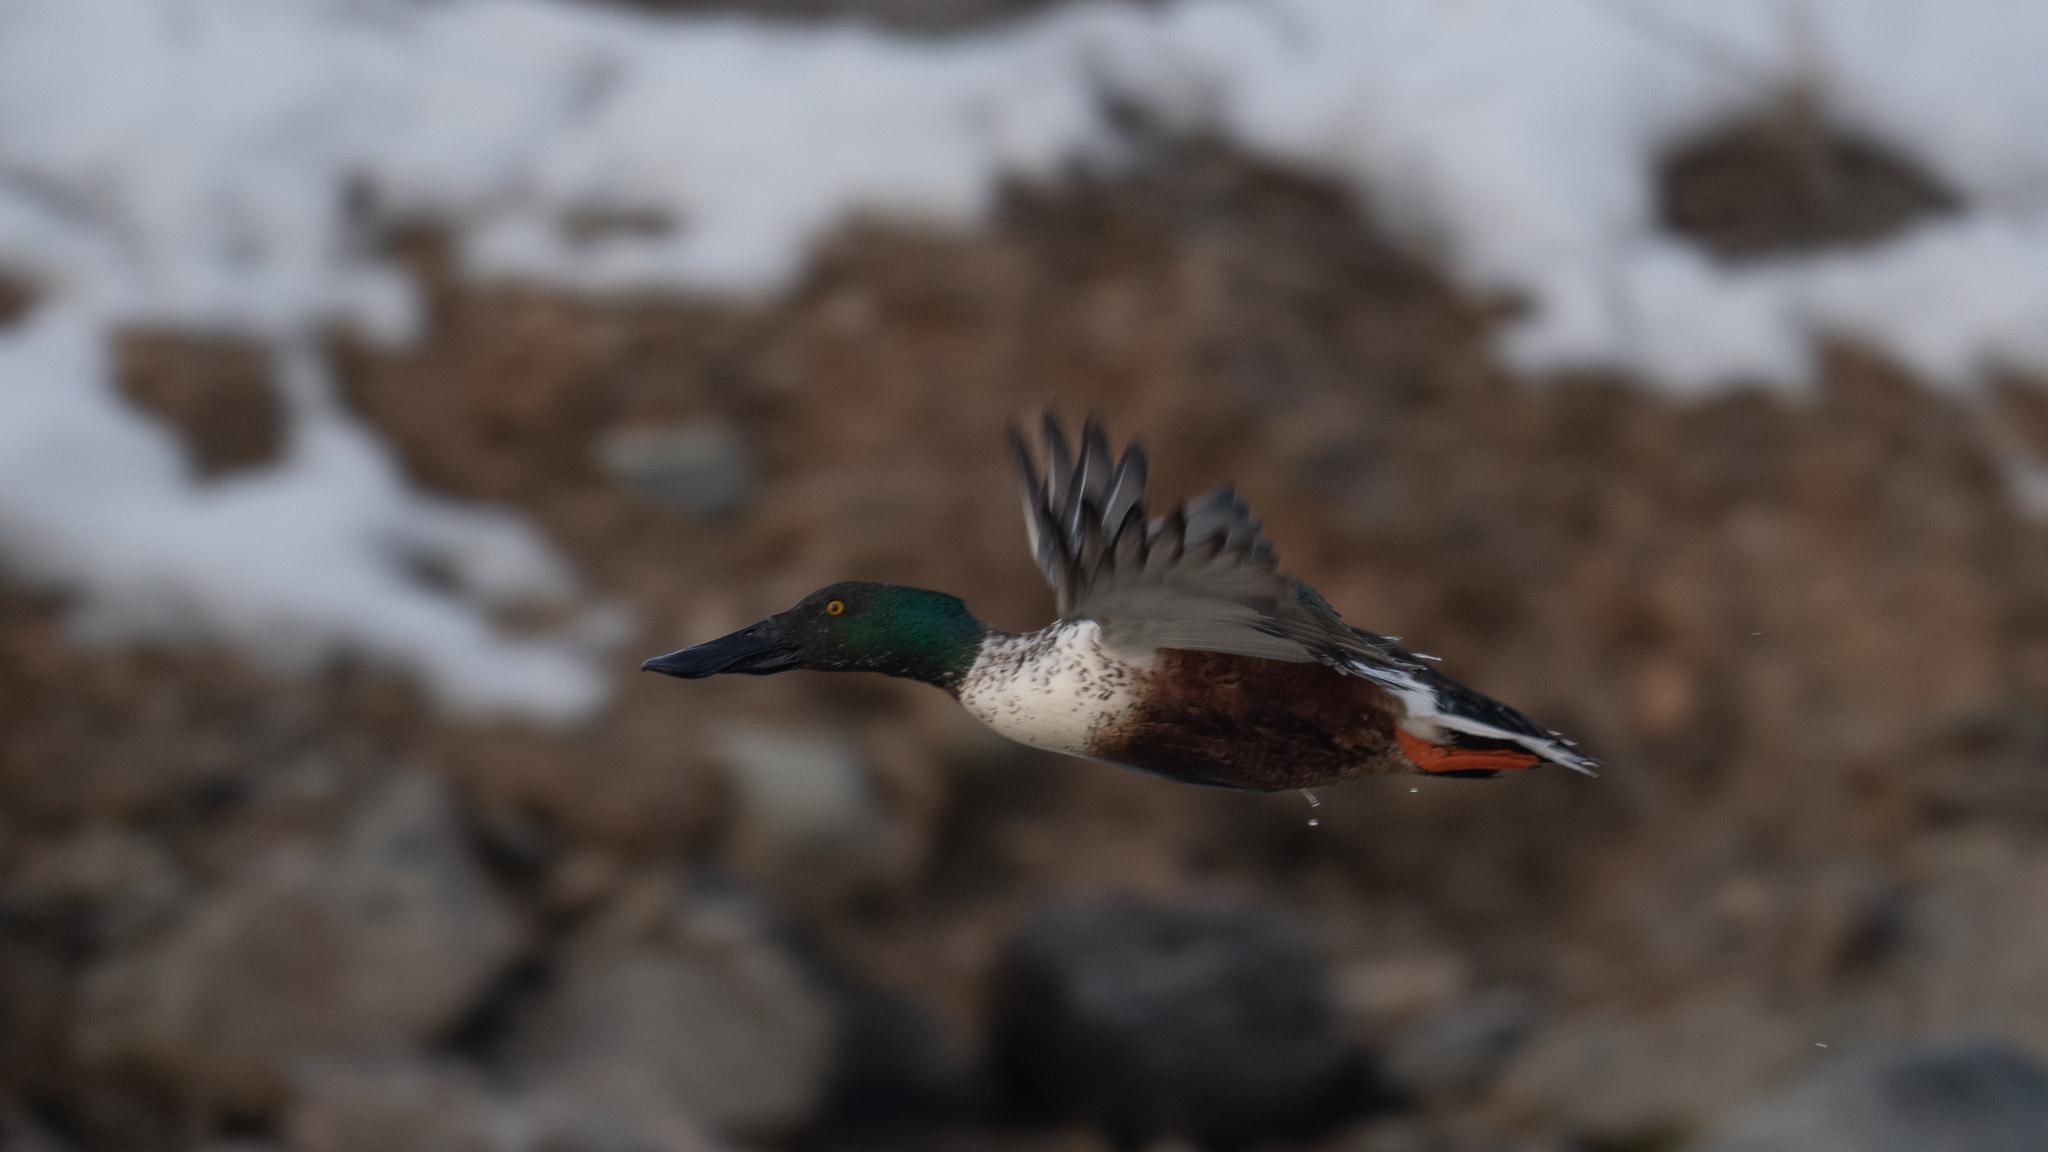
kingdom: Animalia
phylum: Chordata
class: Aves
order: Anseriformes
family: Anatidae
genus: Spatula
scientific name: Spatula clypeata
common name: Northern shoveler
